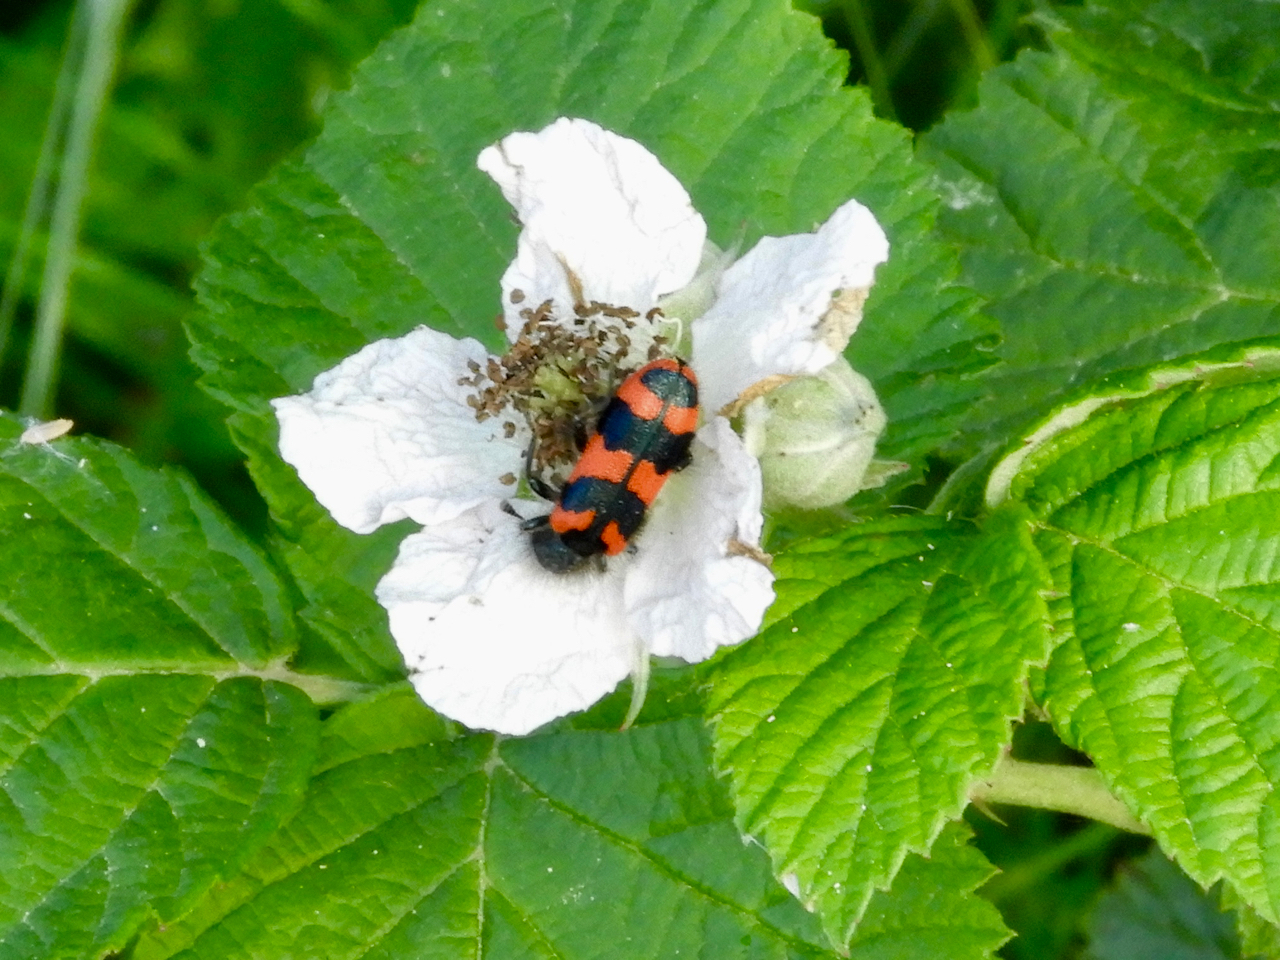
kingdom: Animalia
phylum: Arthropoda
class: Insecta
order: Coleoptera
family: Cleridae
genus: Trichodes
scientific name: Trichodes alvearius
